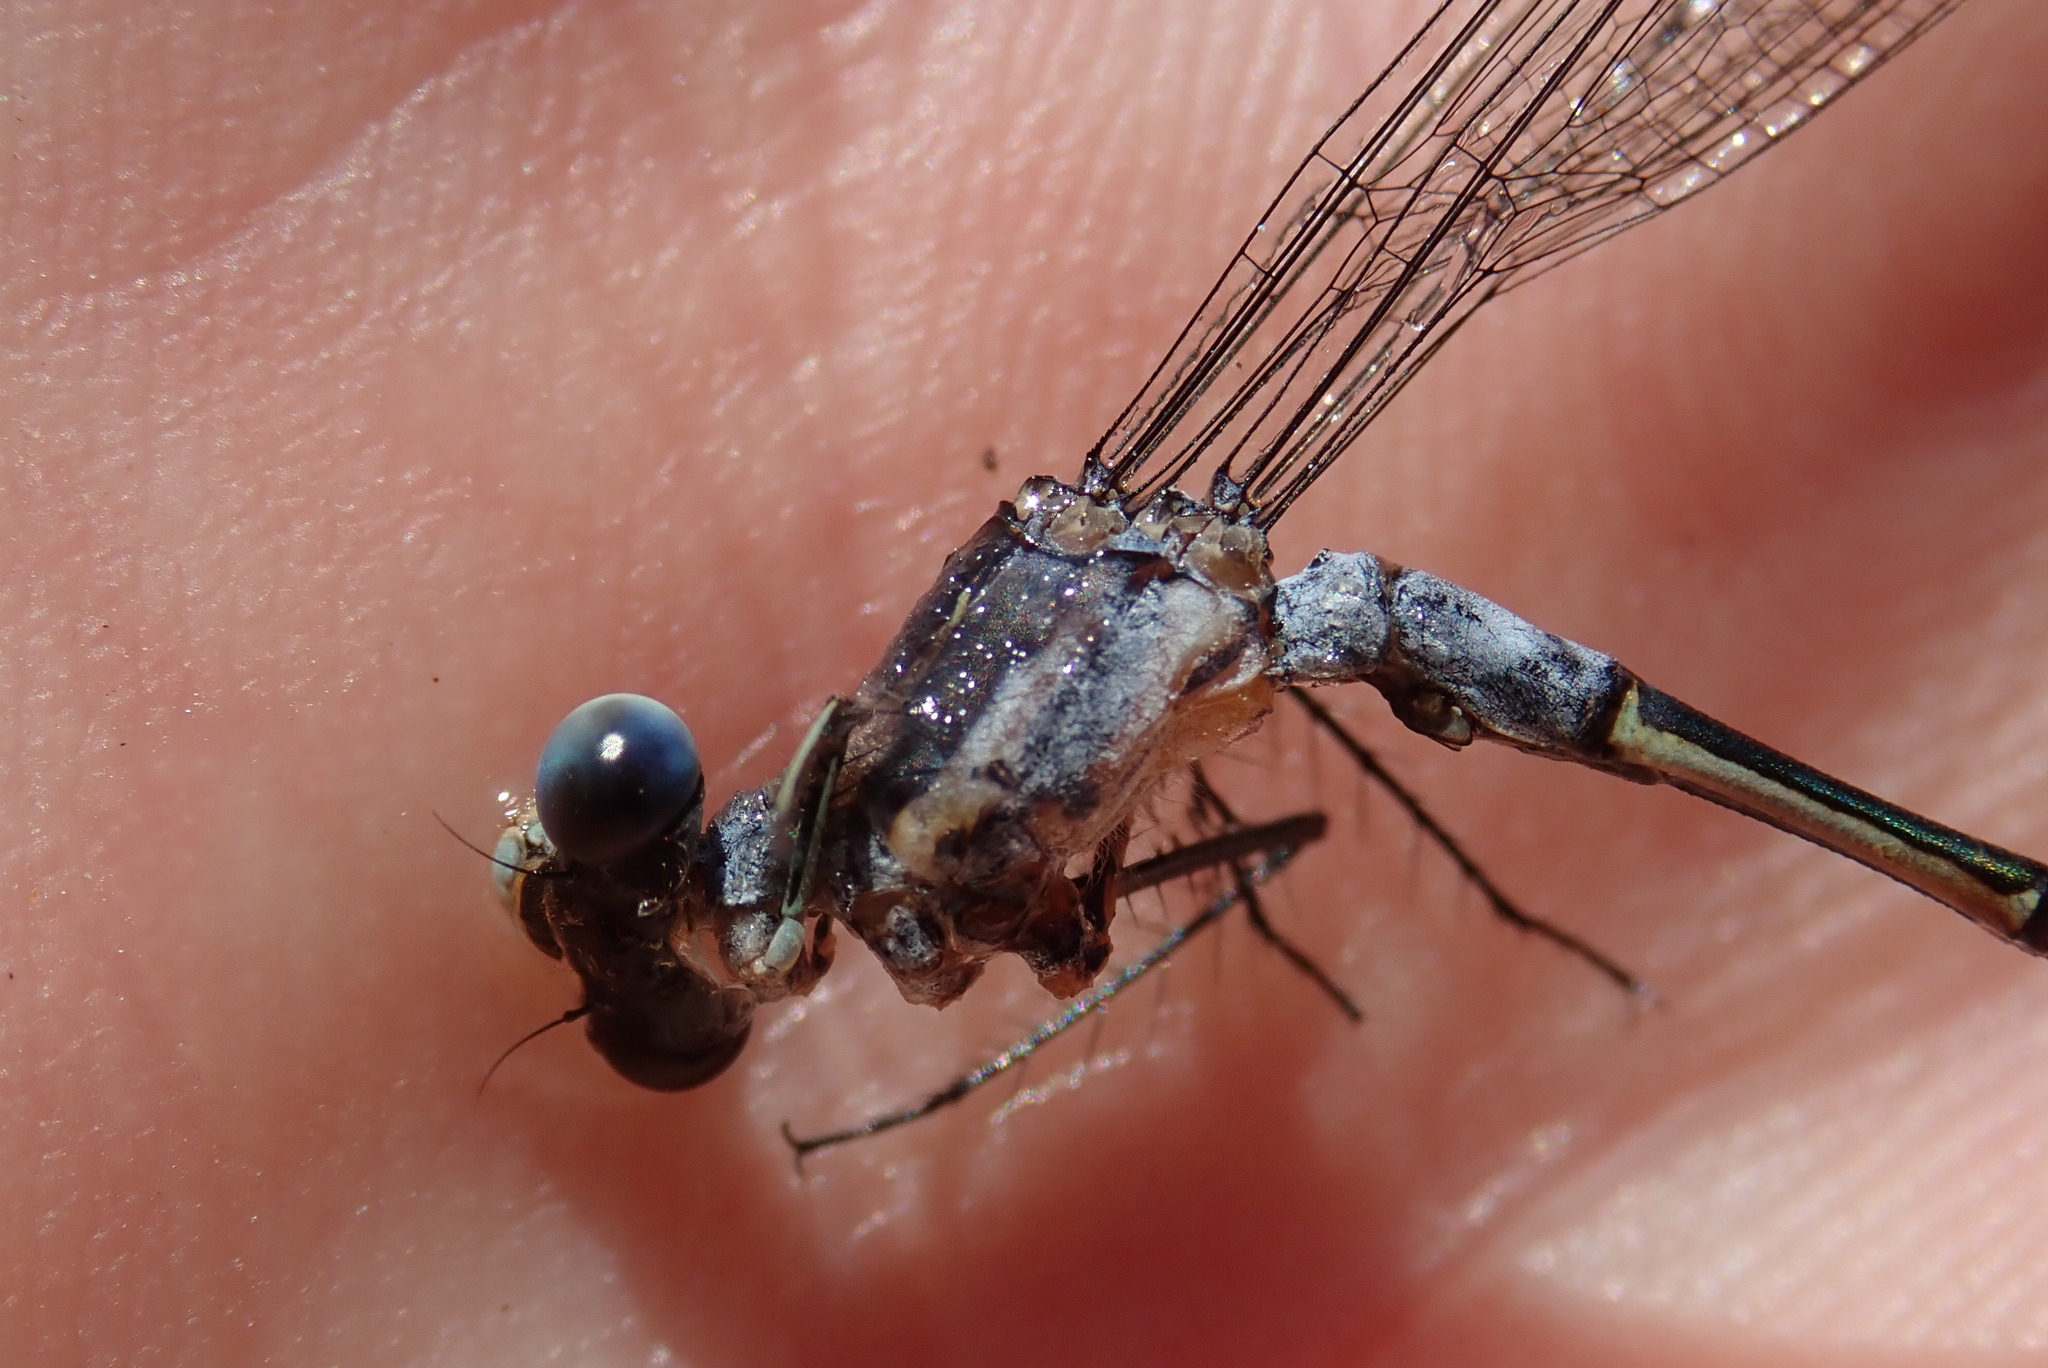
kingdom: Animalia
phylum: Arthropoda
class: Insecta
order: Odonata
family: Lestidae
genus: Lestes
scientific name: Lestes disjunctus
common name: Northern spreadwing
